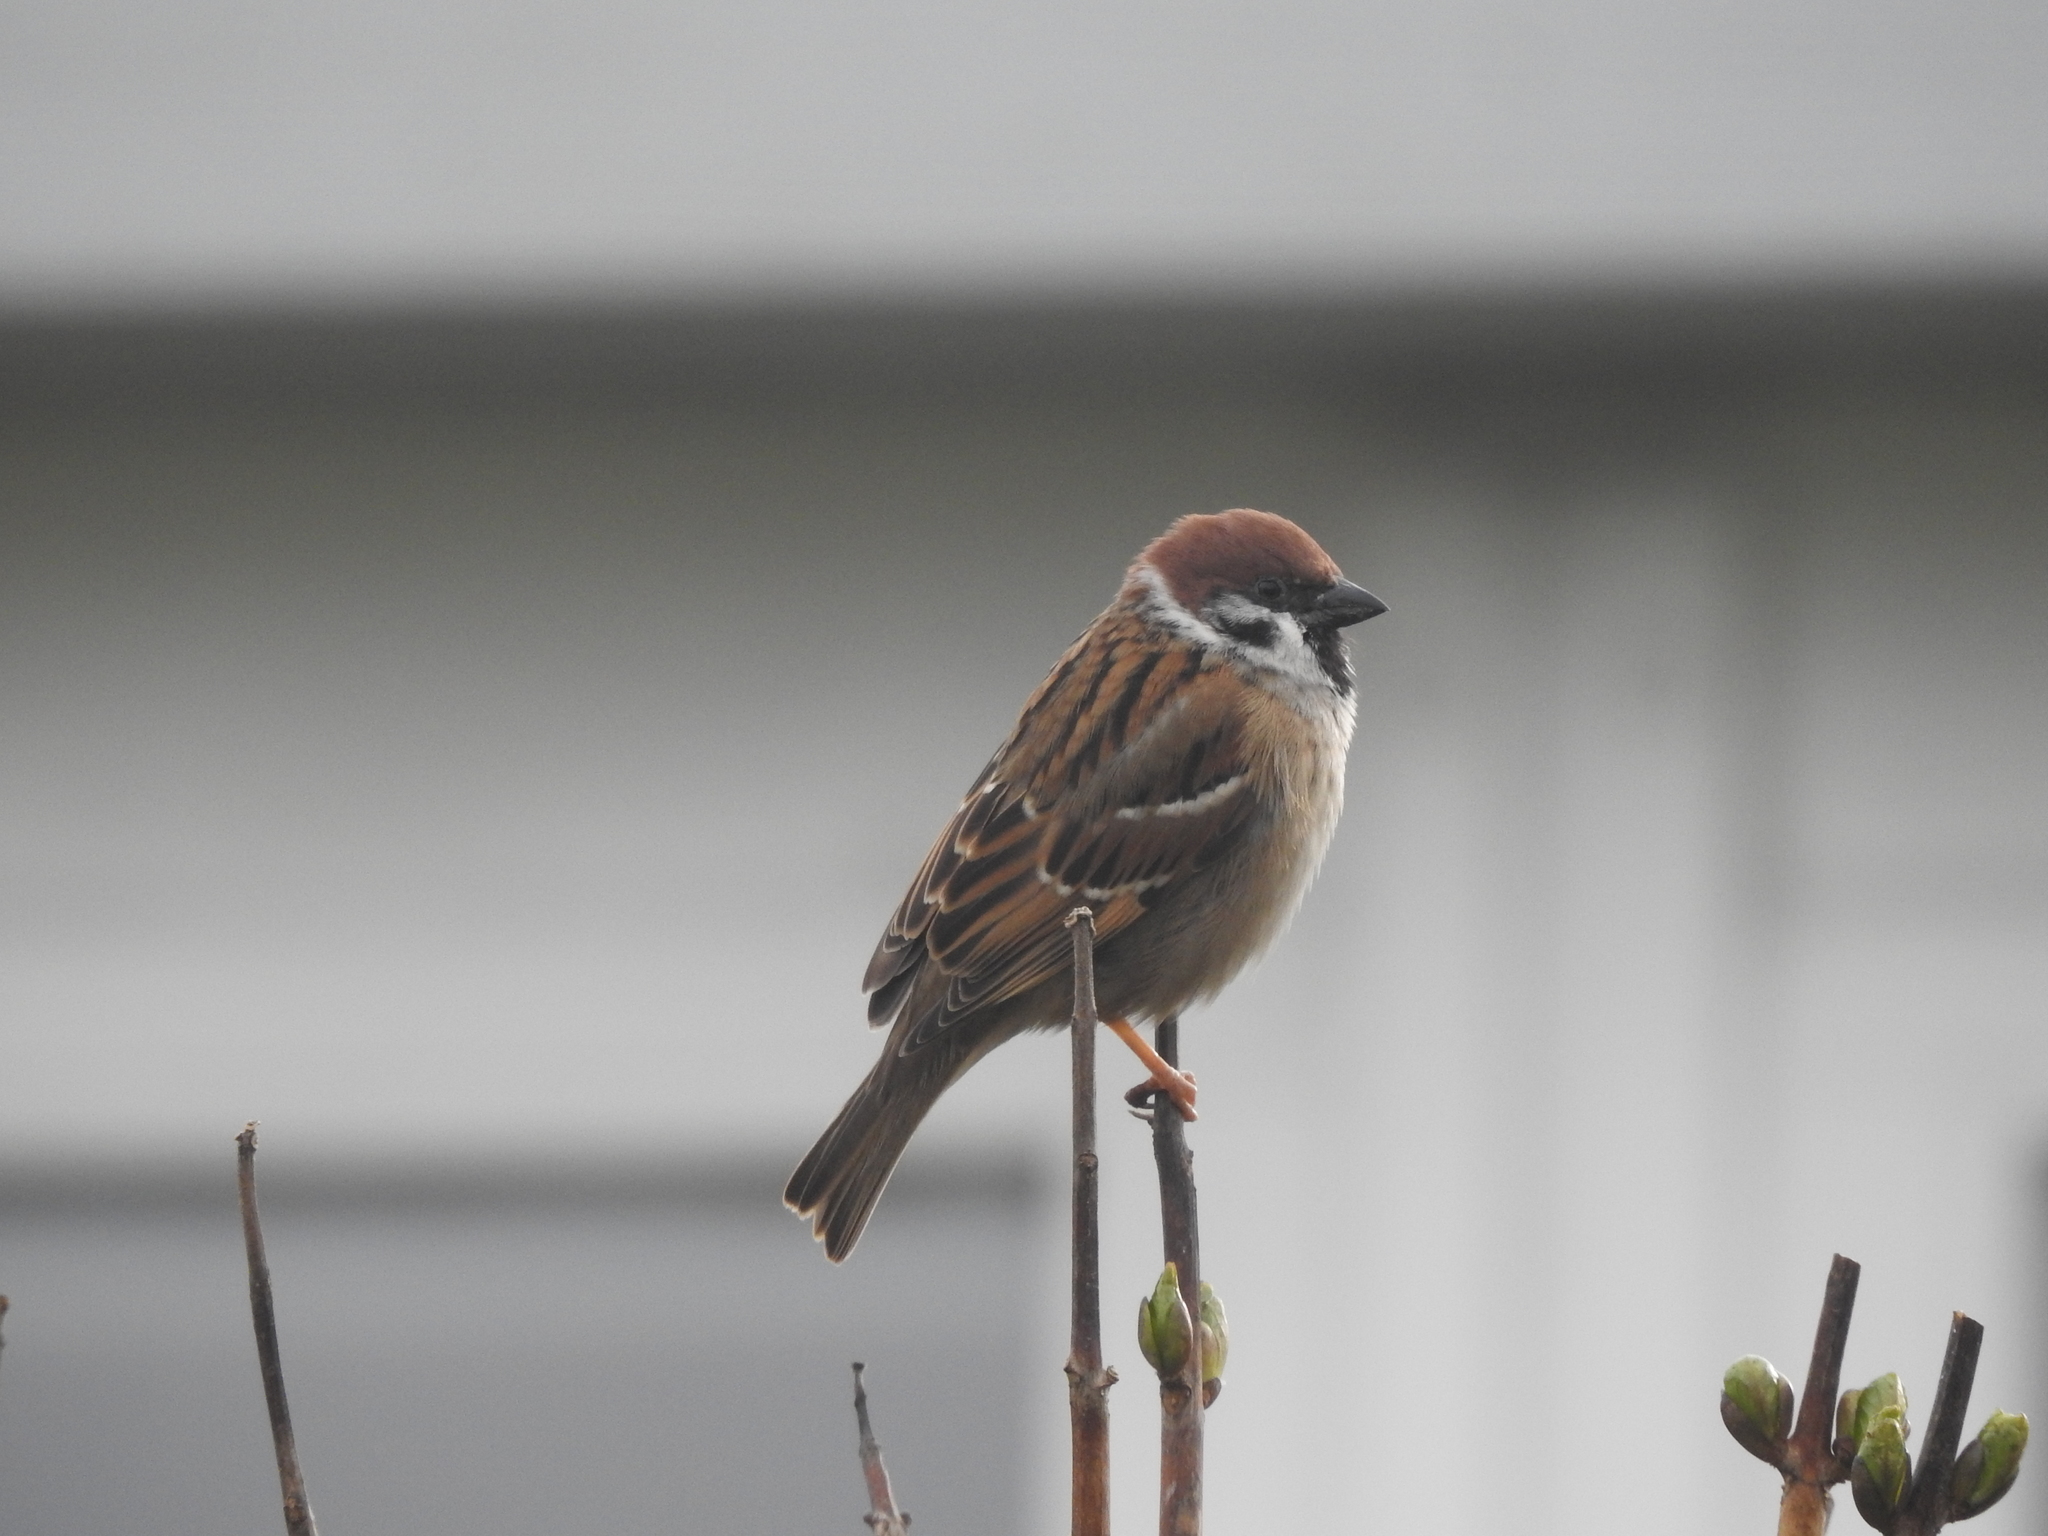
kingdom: Animalia
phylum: Chordata
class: Aves
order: Passeriformes
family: Passeridae
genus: Passer
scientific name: Passer montanus
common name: Eurasian tree sparrow
